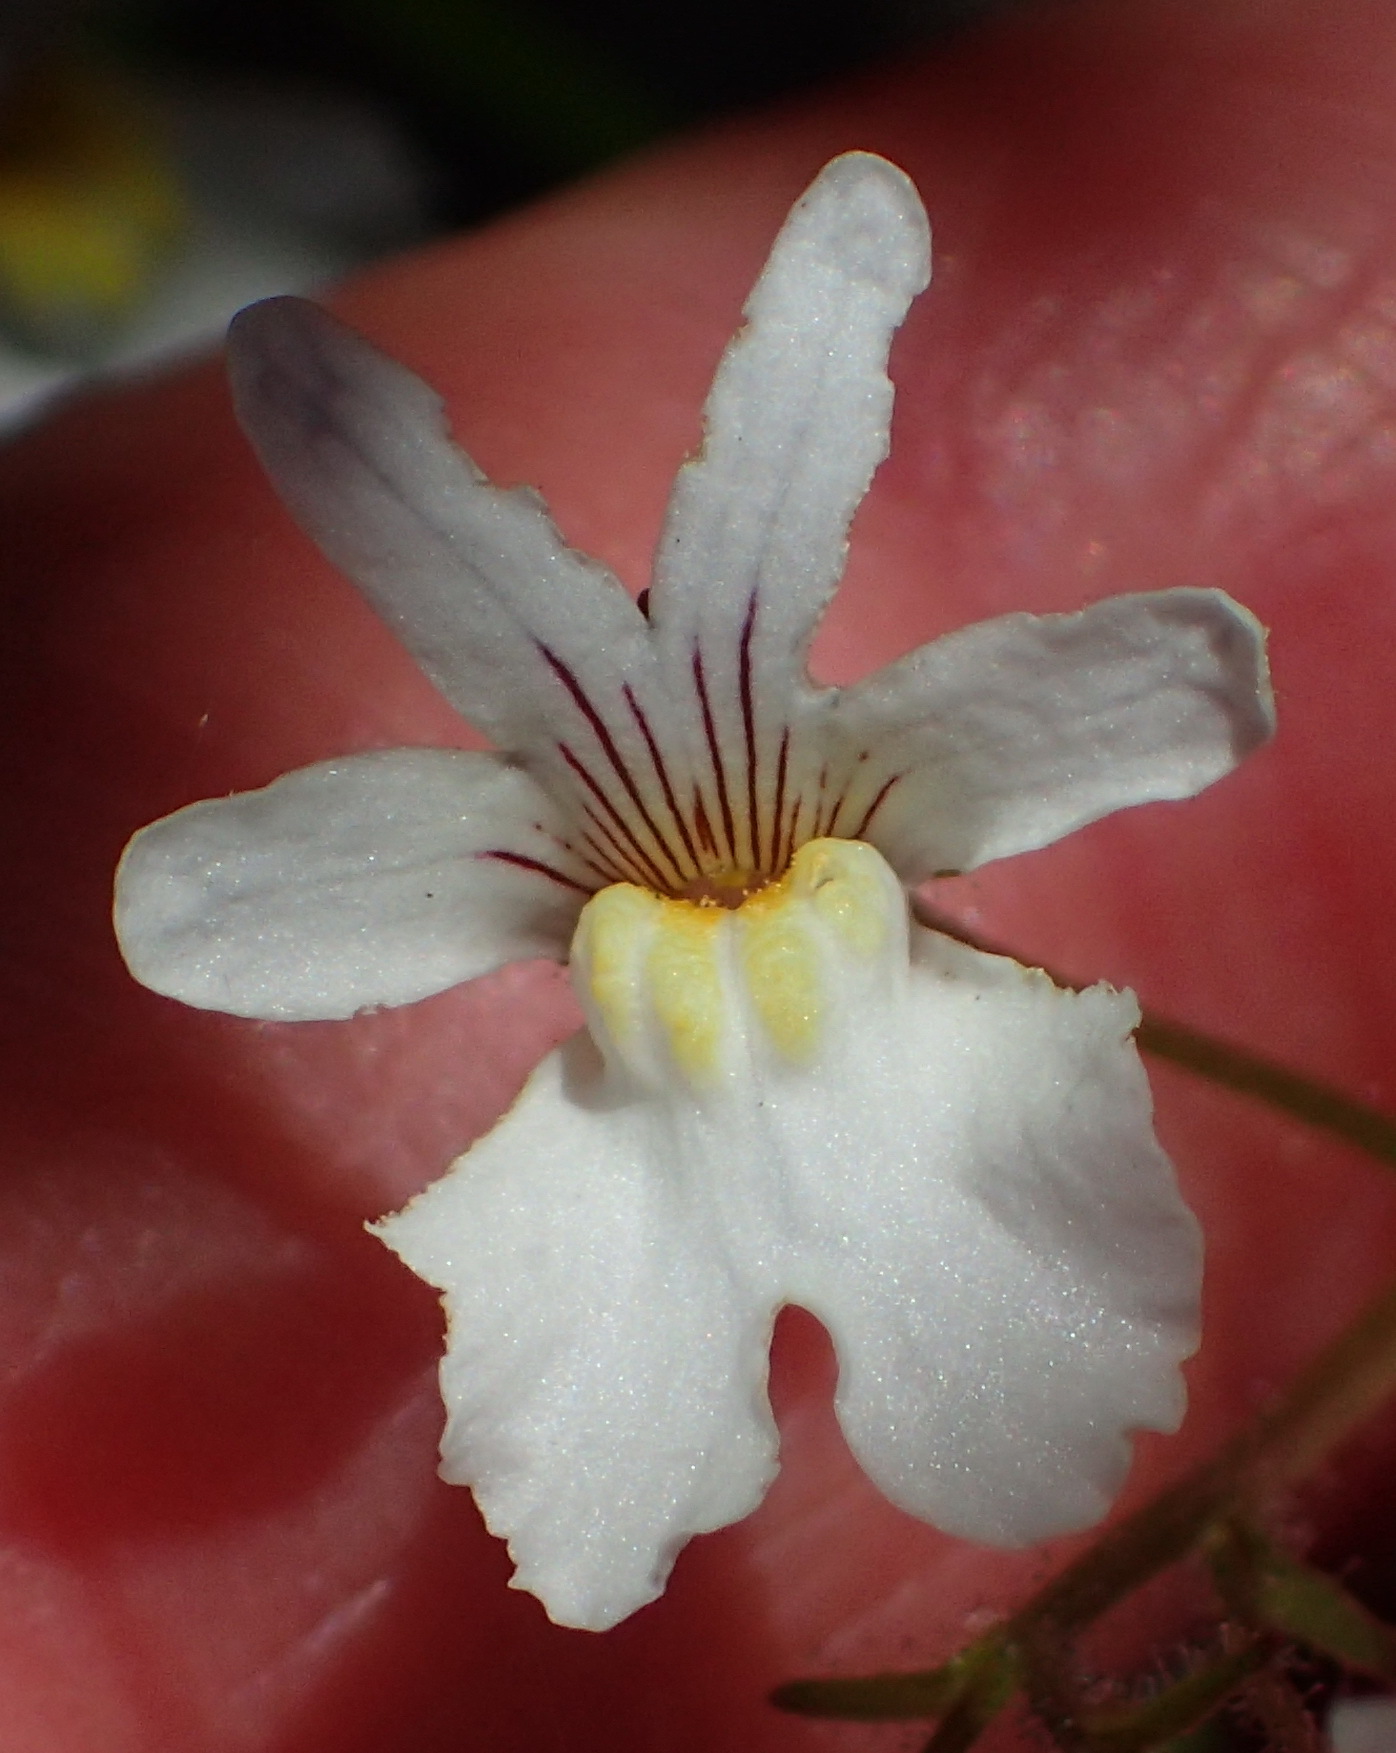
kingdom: Plantae
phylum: Tracheophyta
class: Magnoliopsida
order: Lamiales
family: Scrophulariaceae
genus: Nemesia
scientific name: Nemesia bicornis
